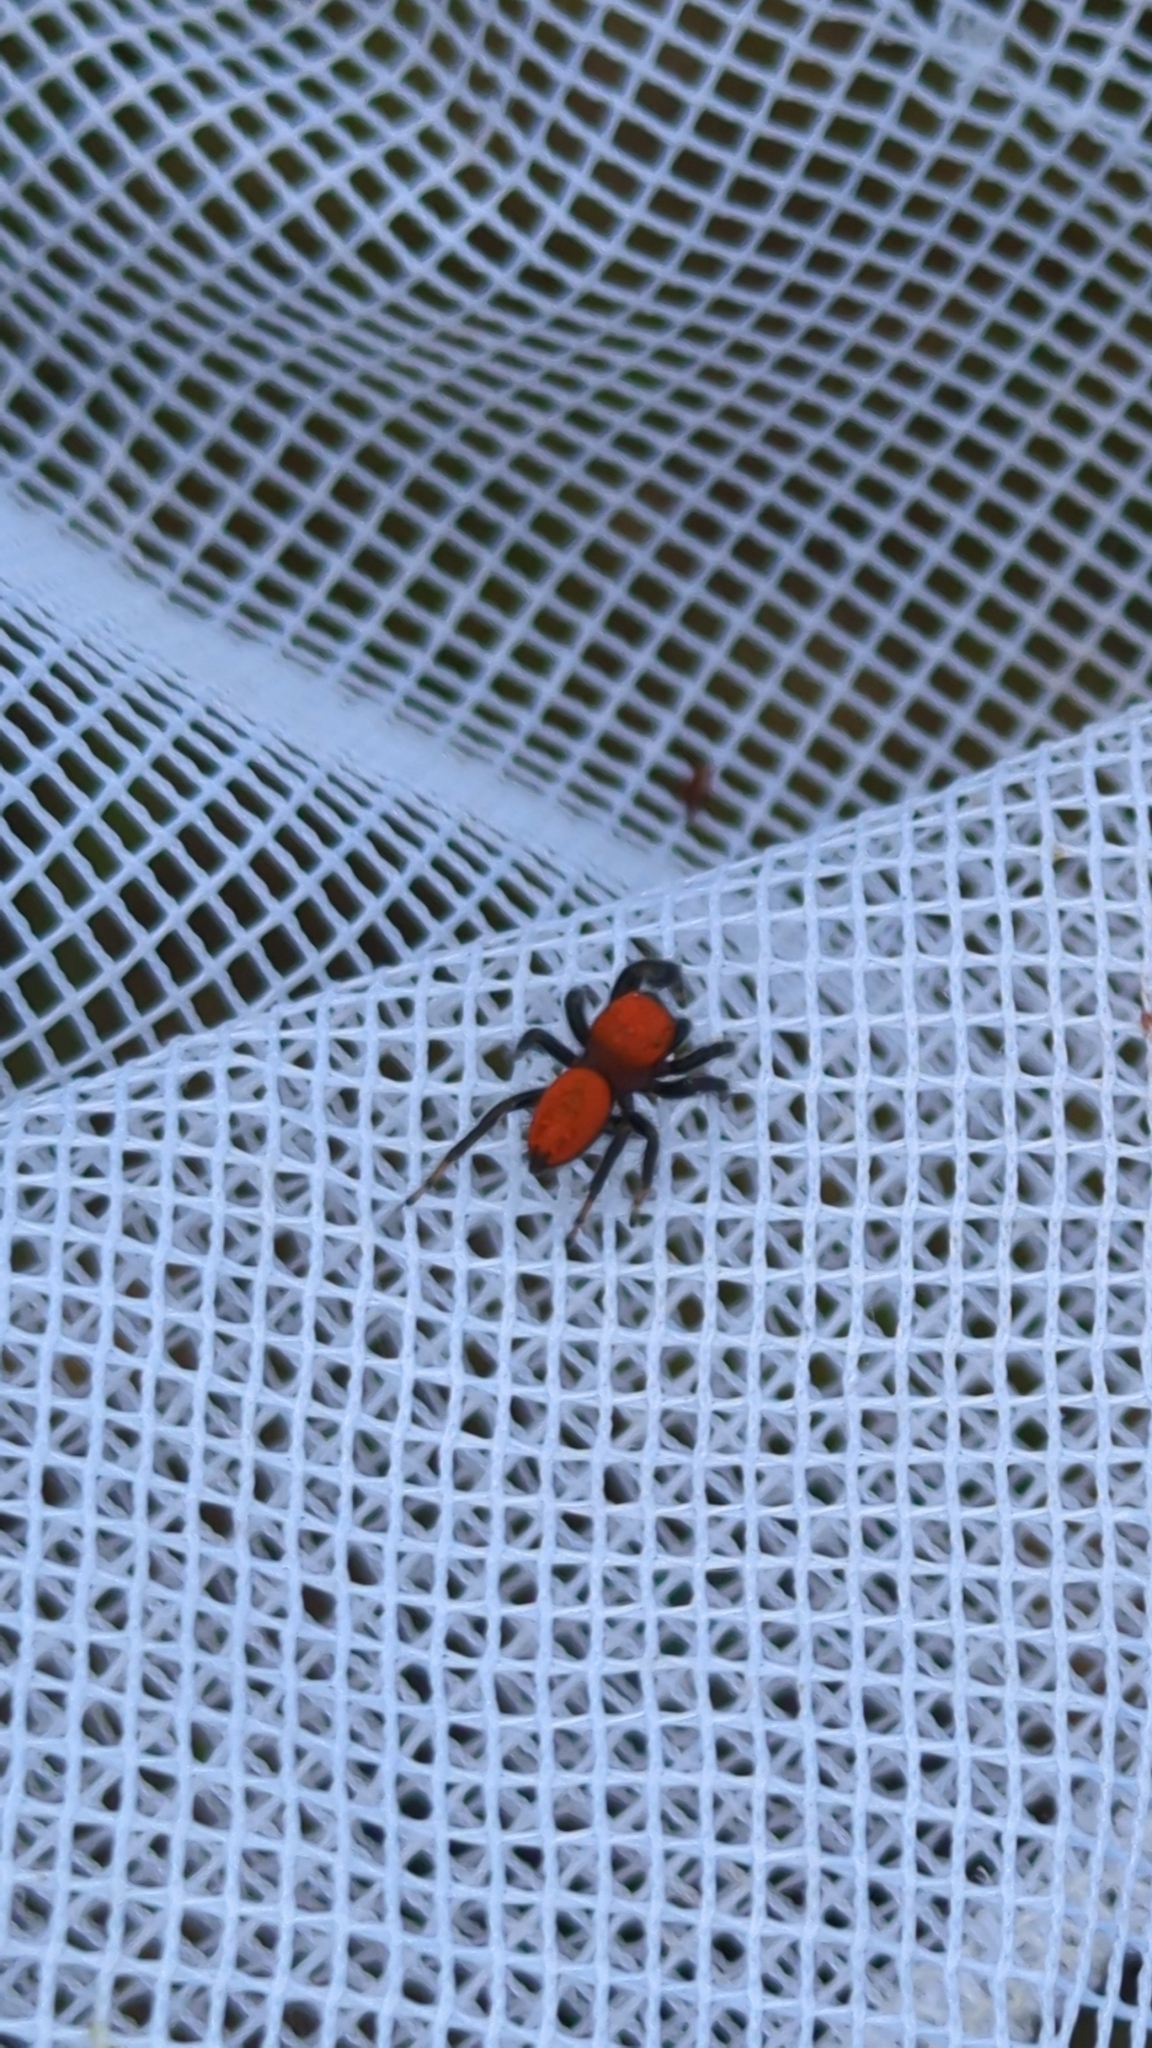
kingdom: Animalia
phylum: Arthropoda
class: Arachnida
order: Araneae
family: Salticidae
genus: Phidippus
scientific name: Phidippus cardinalis
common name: Cardinal jumper
